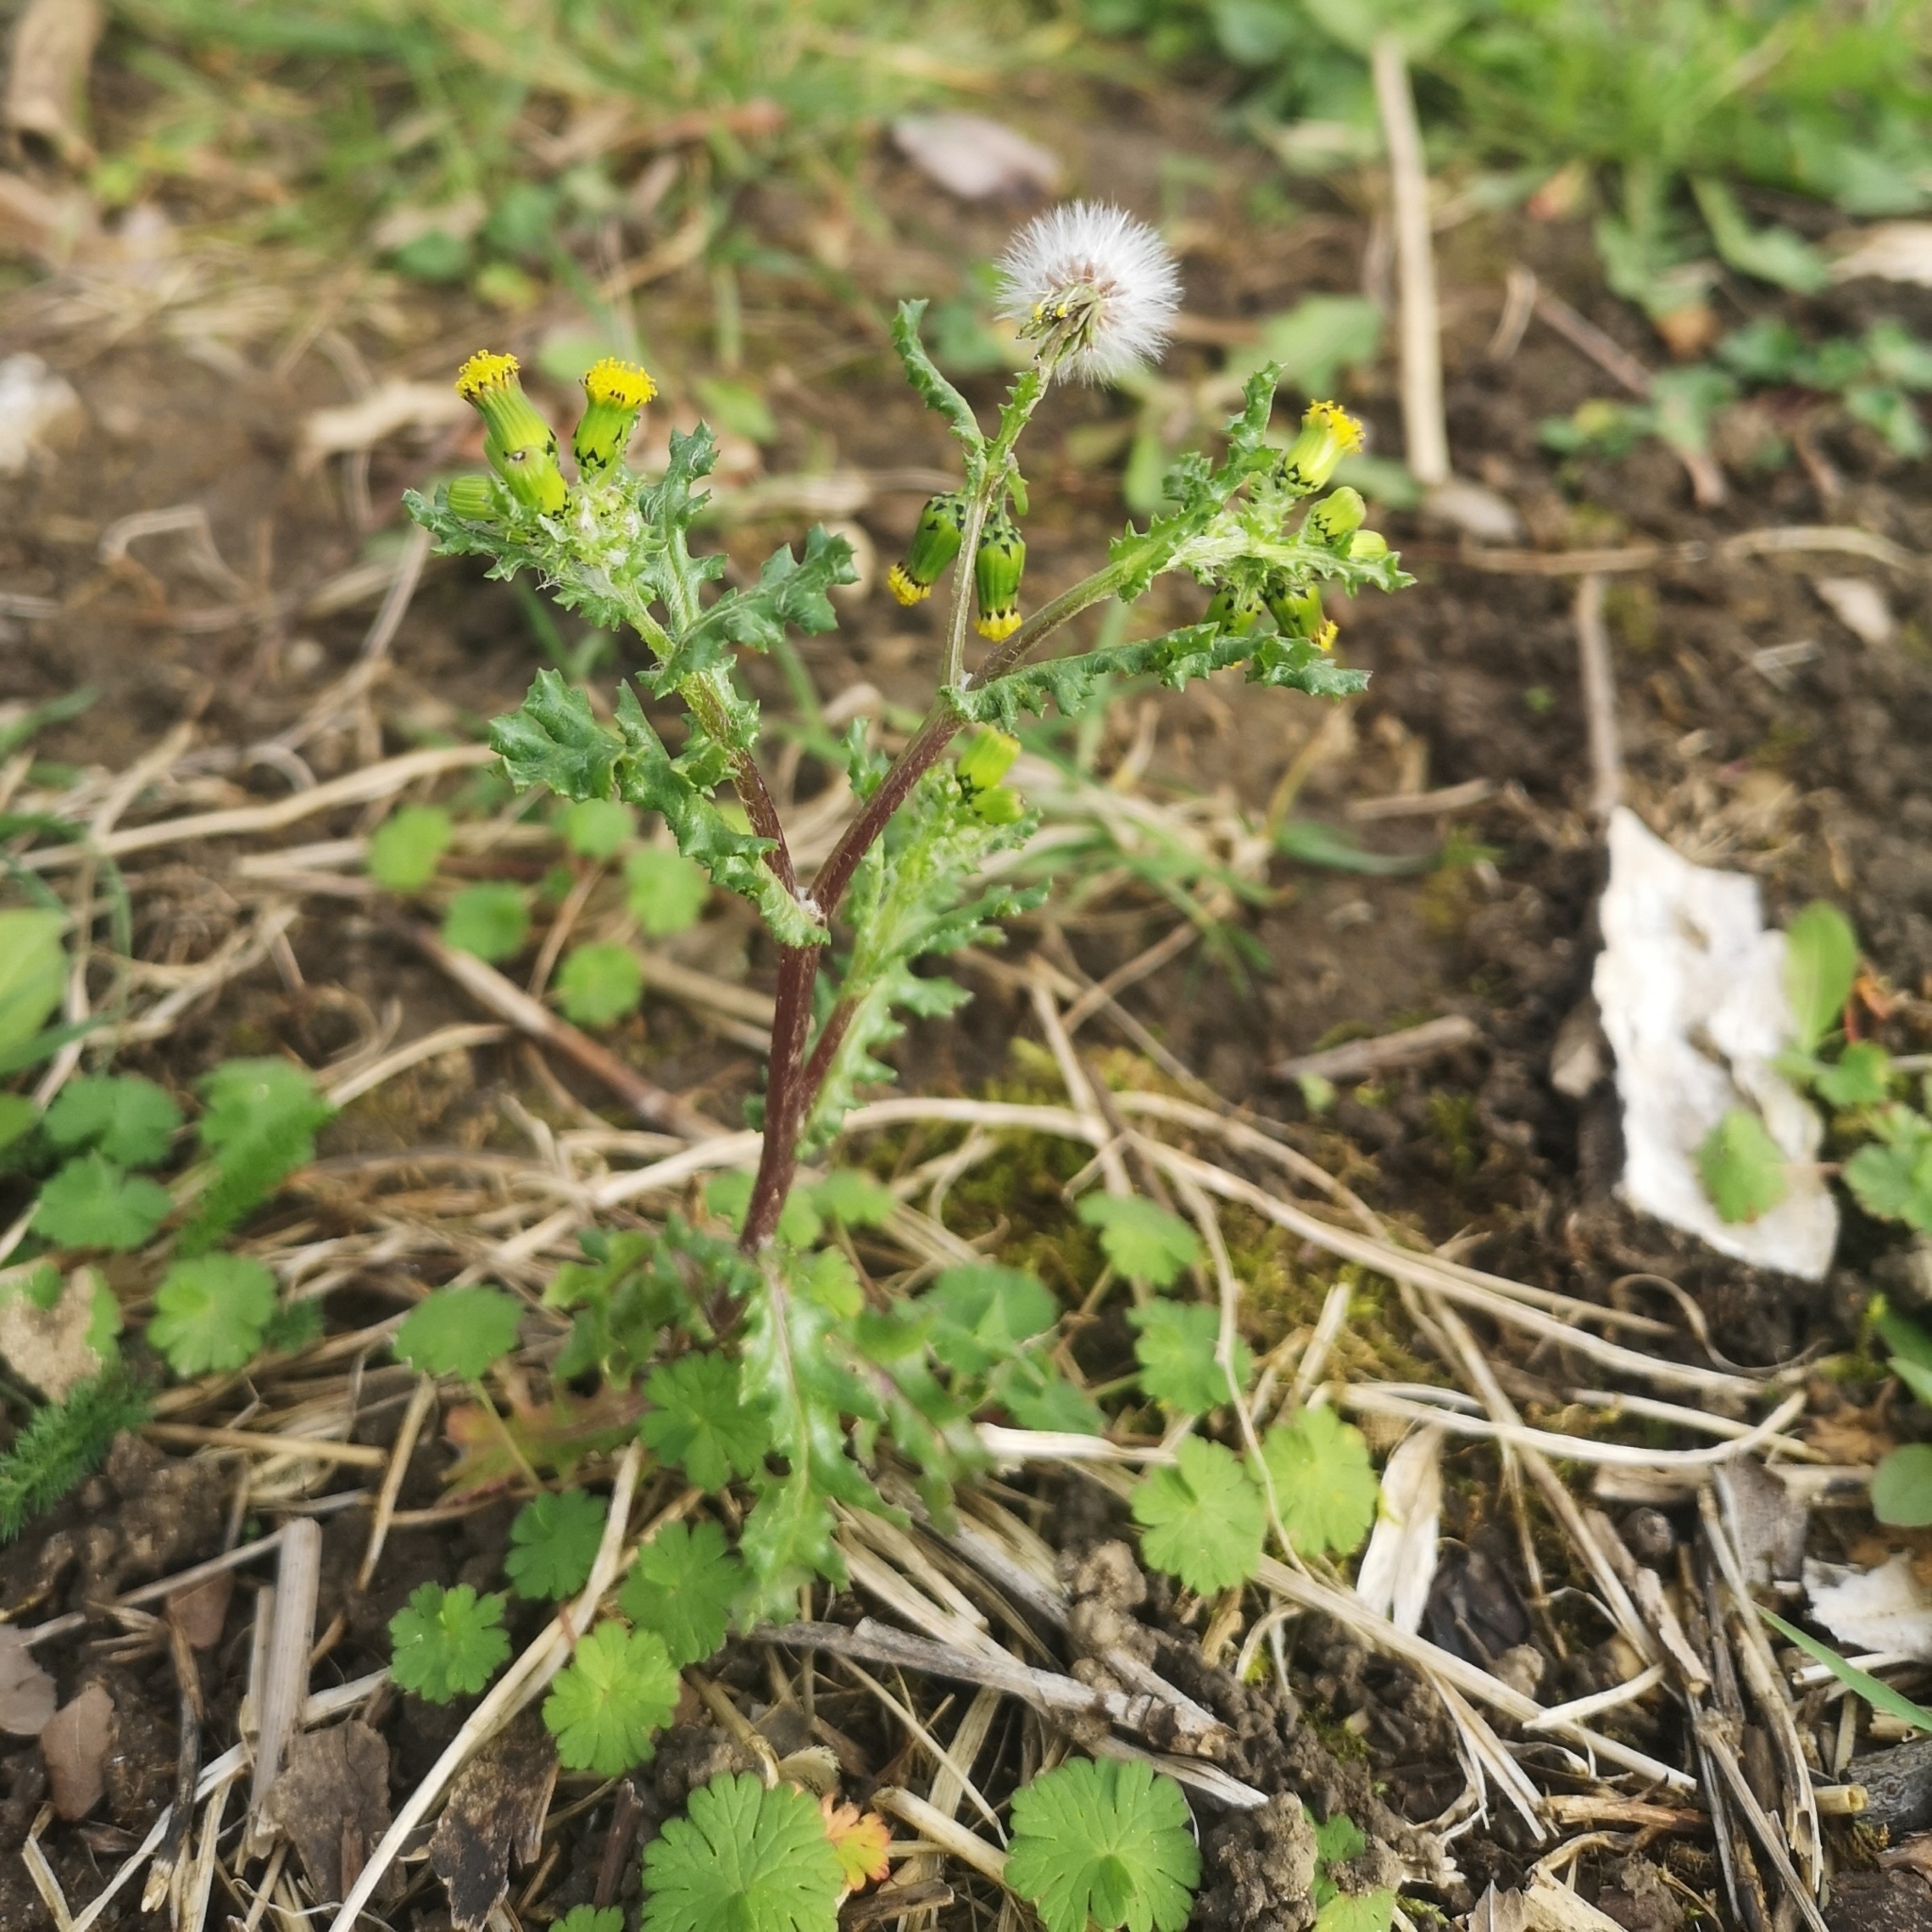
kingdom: Plantae
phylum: Tracheophyta
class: Magnoliopsida
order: Asterales
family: Asteraceae
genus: Senecio
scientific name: Senecio vulgaris
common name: Old-man-in-the-spring
